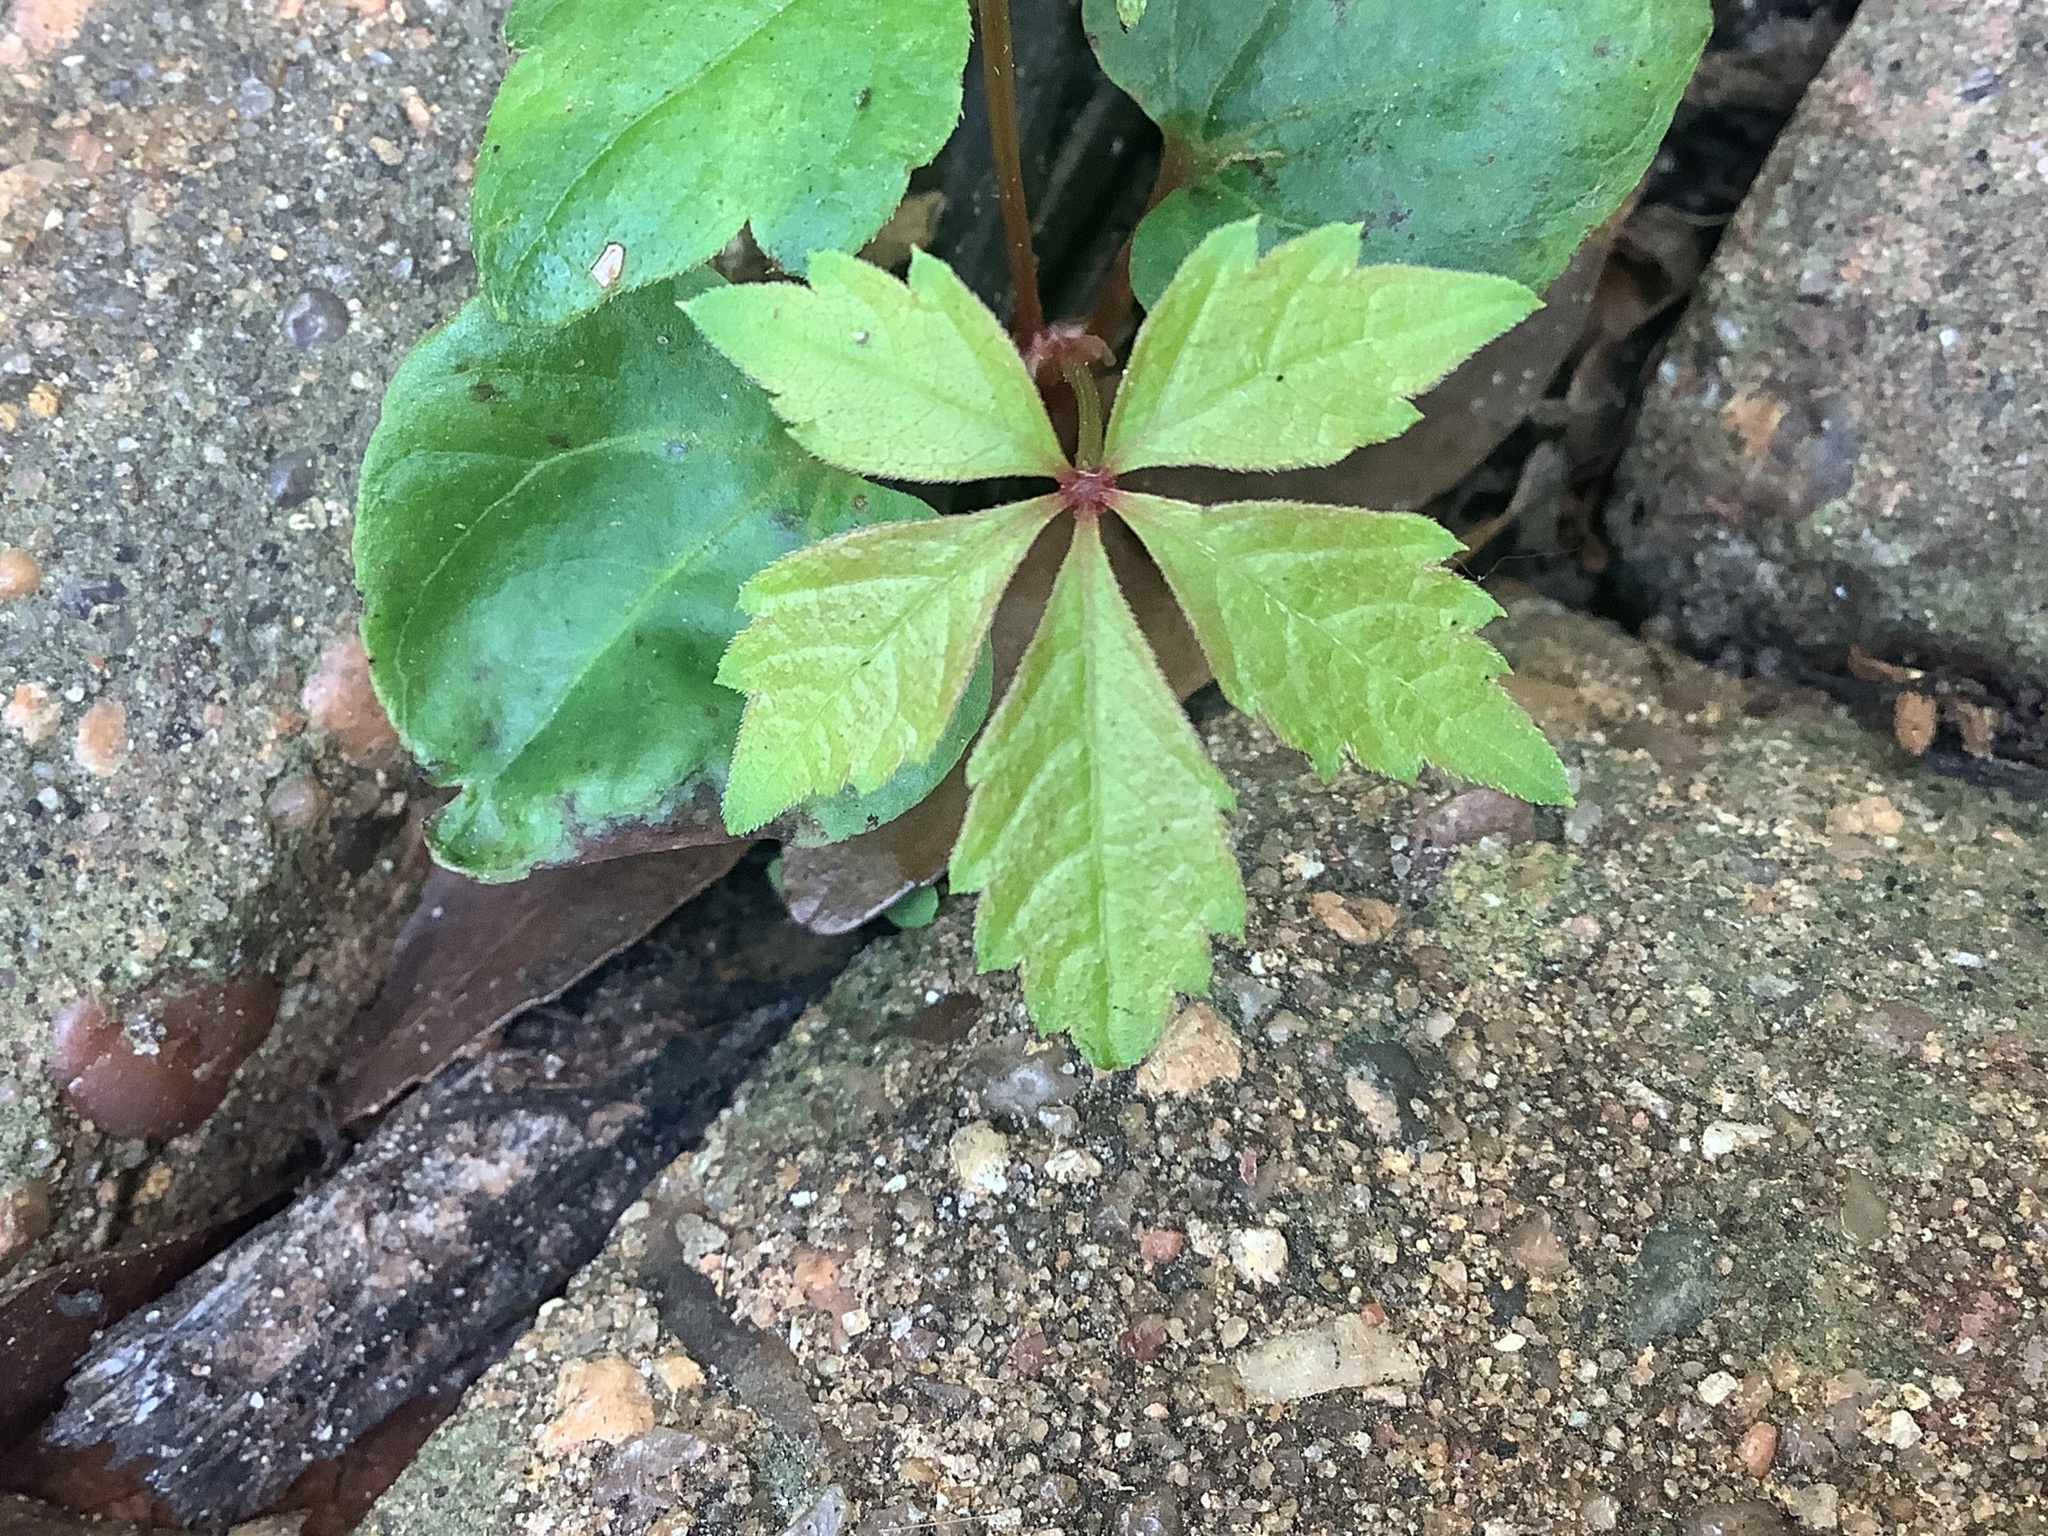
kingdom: Plantae
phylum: Tracheophyta
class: Magnoliopsida
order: Vitales
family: Vitaceae
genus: Parthenocissus
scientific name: Parthenocissus quinquefolia
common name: Virginia-creeper
